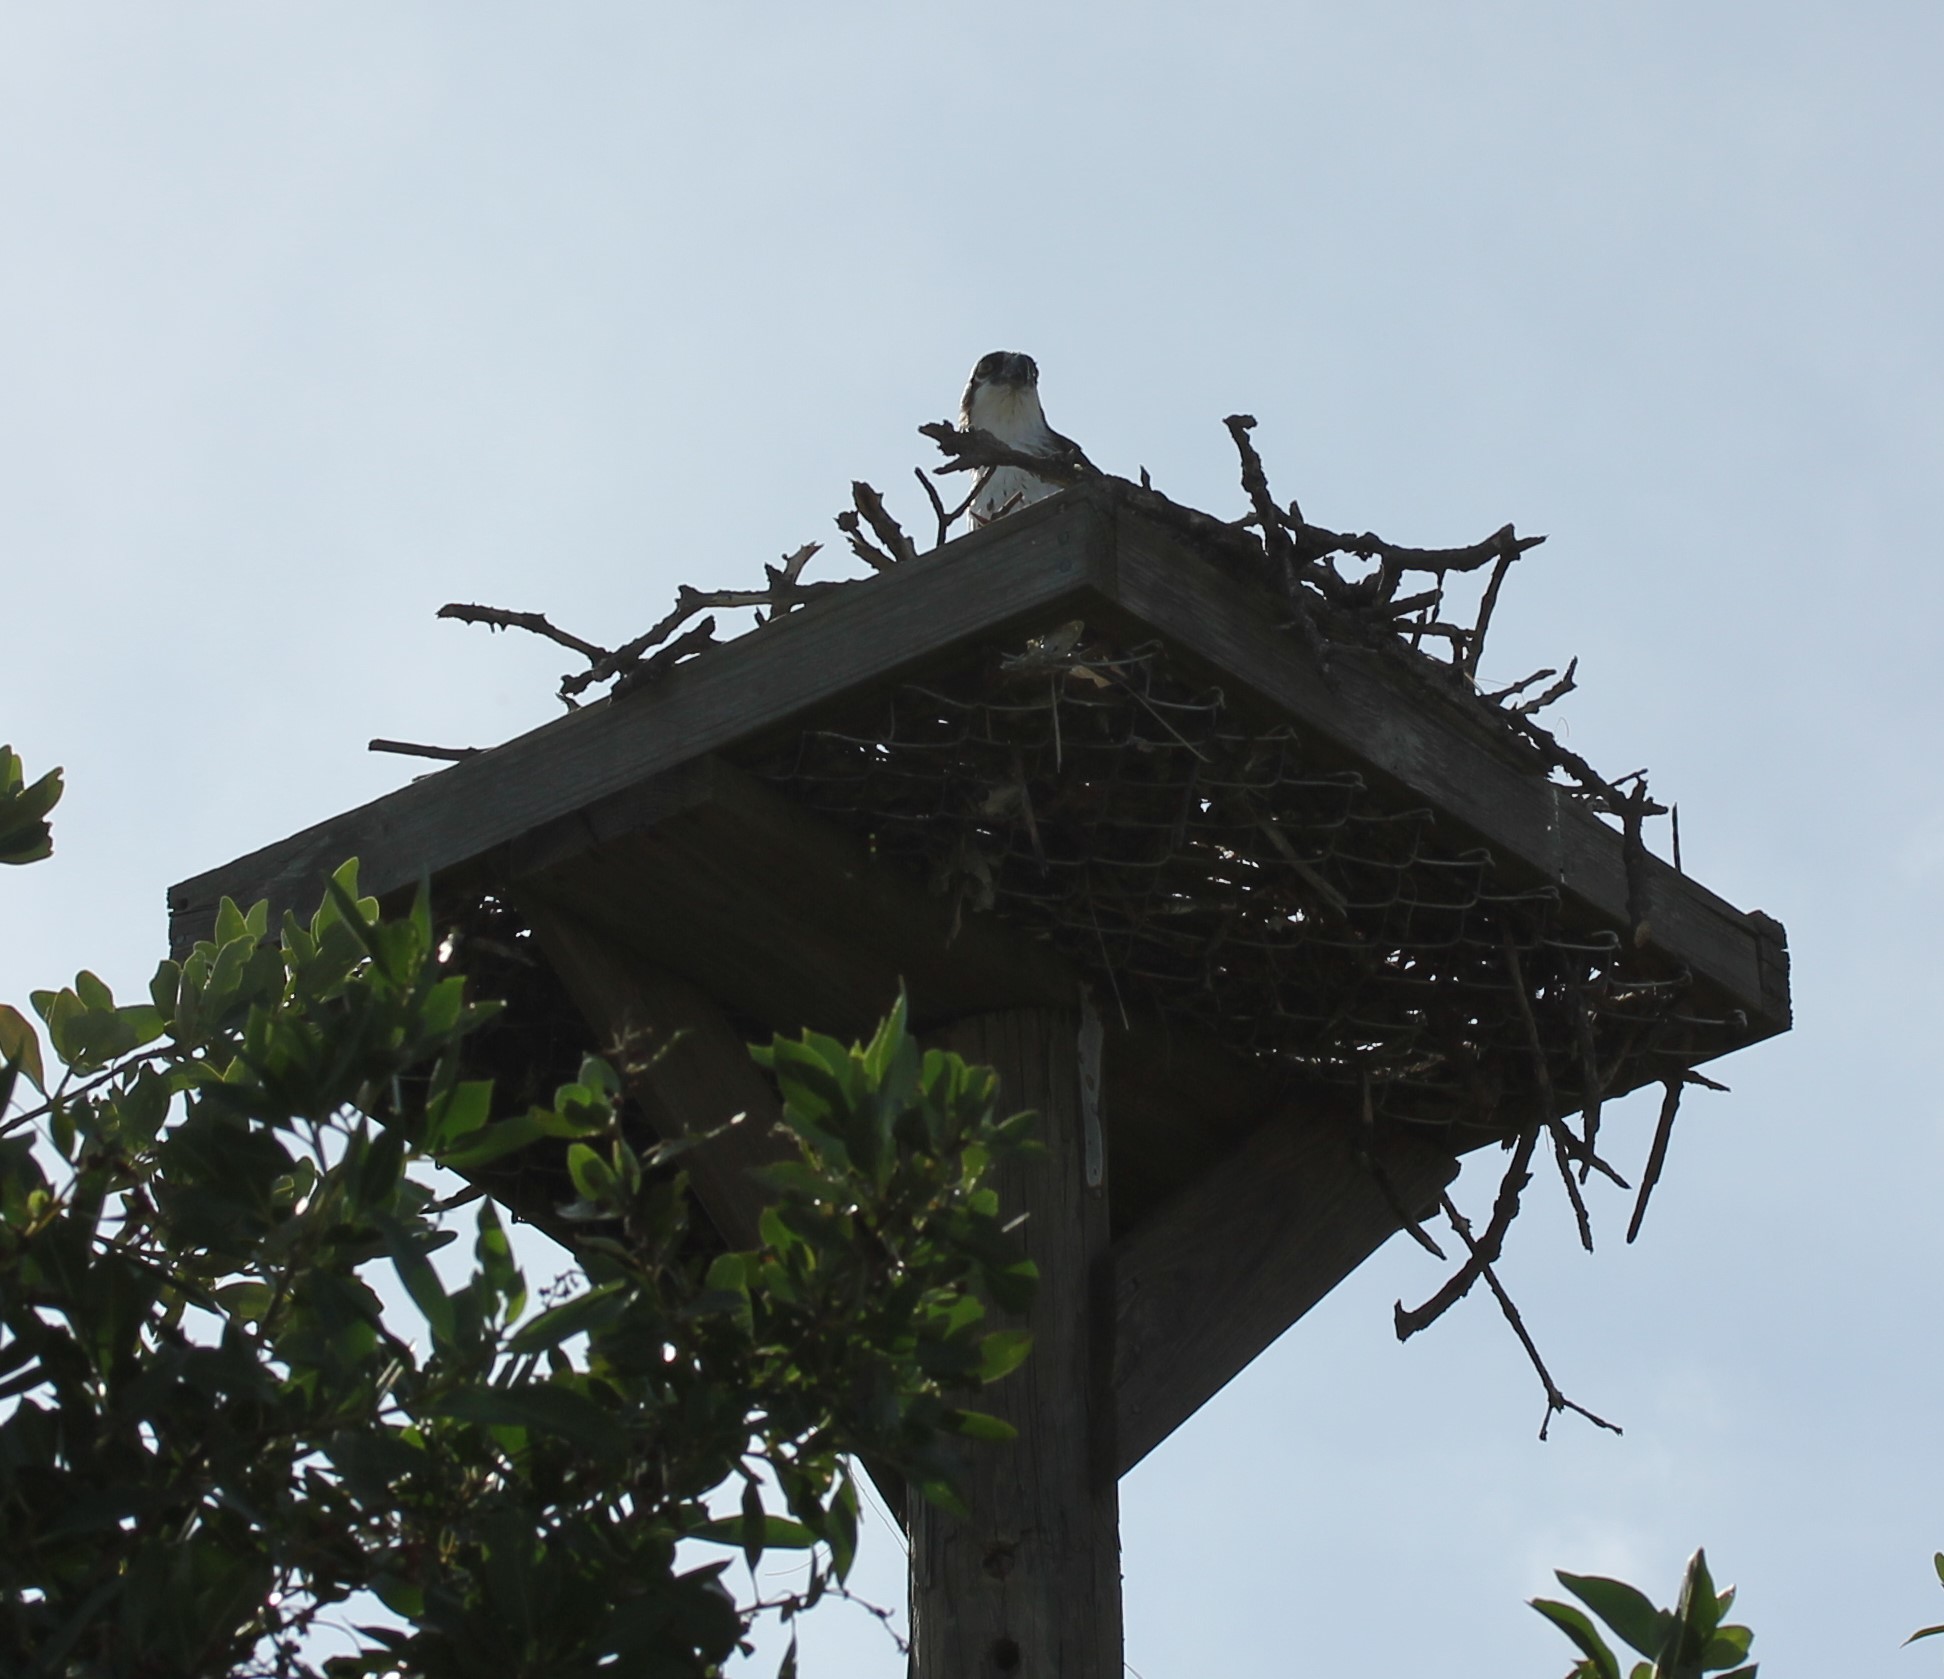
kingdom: Animalia
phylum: Chordata
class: Aves
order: Accipitriformes
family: Pandionidae
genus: Pandion
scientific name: Pandion haliaetus
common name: Osprey
